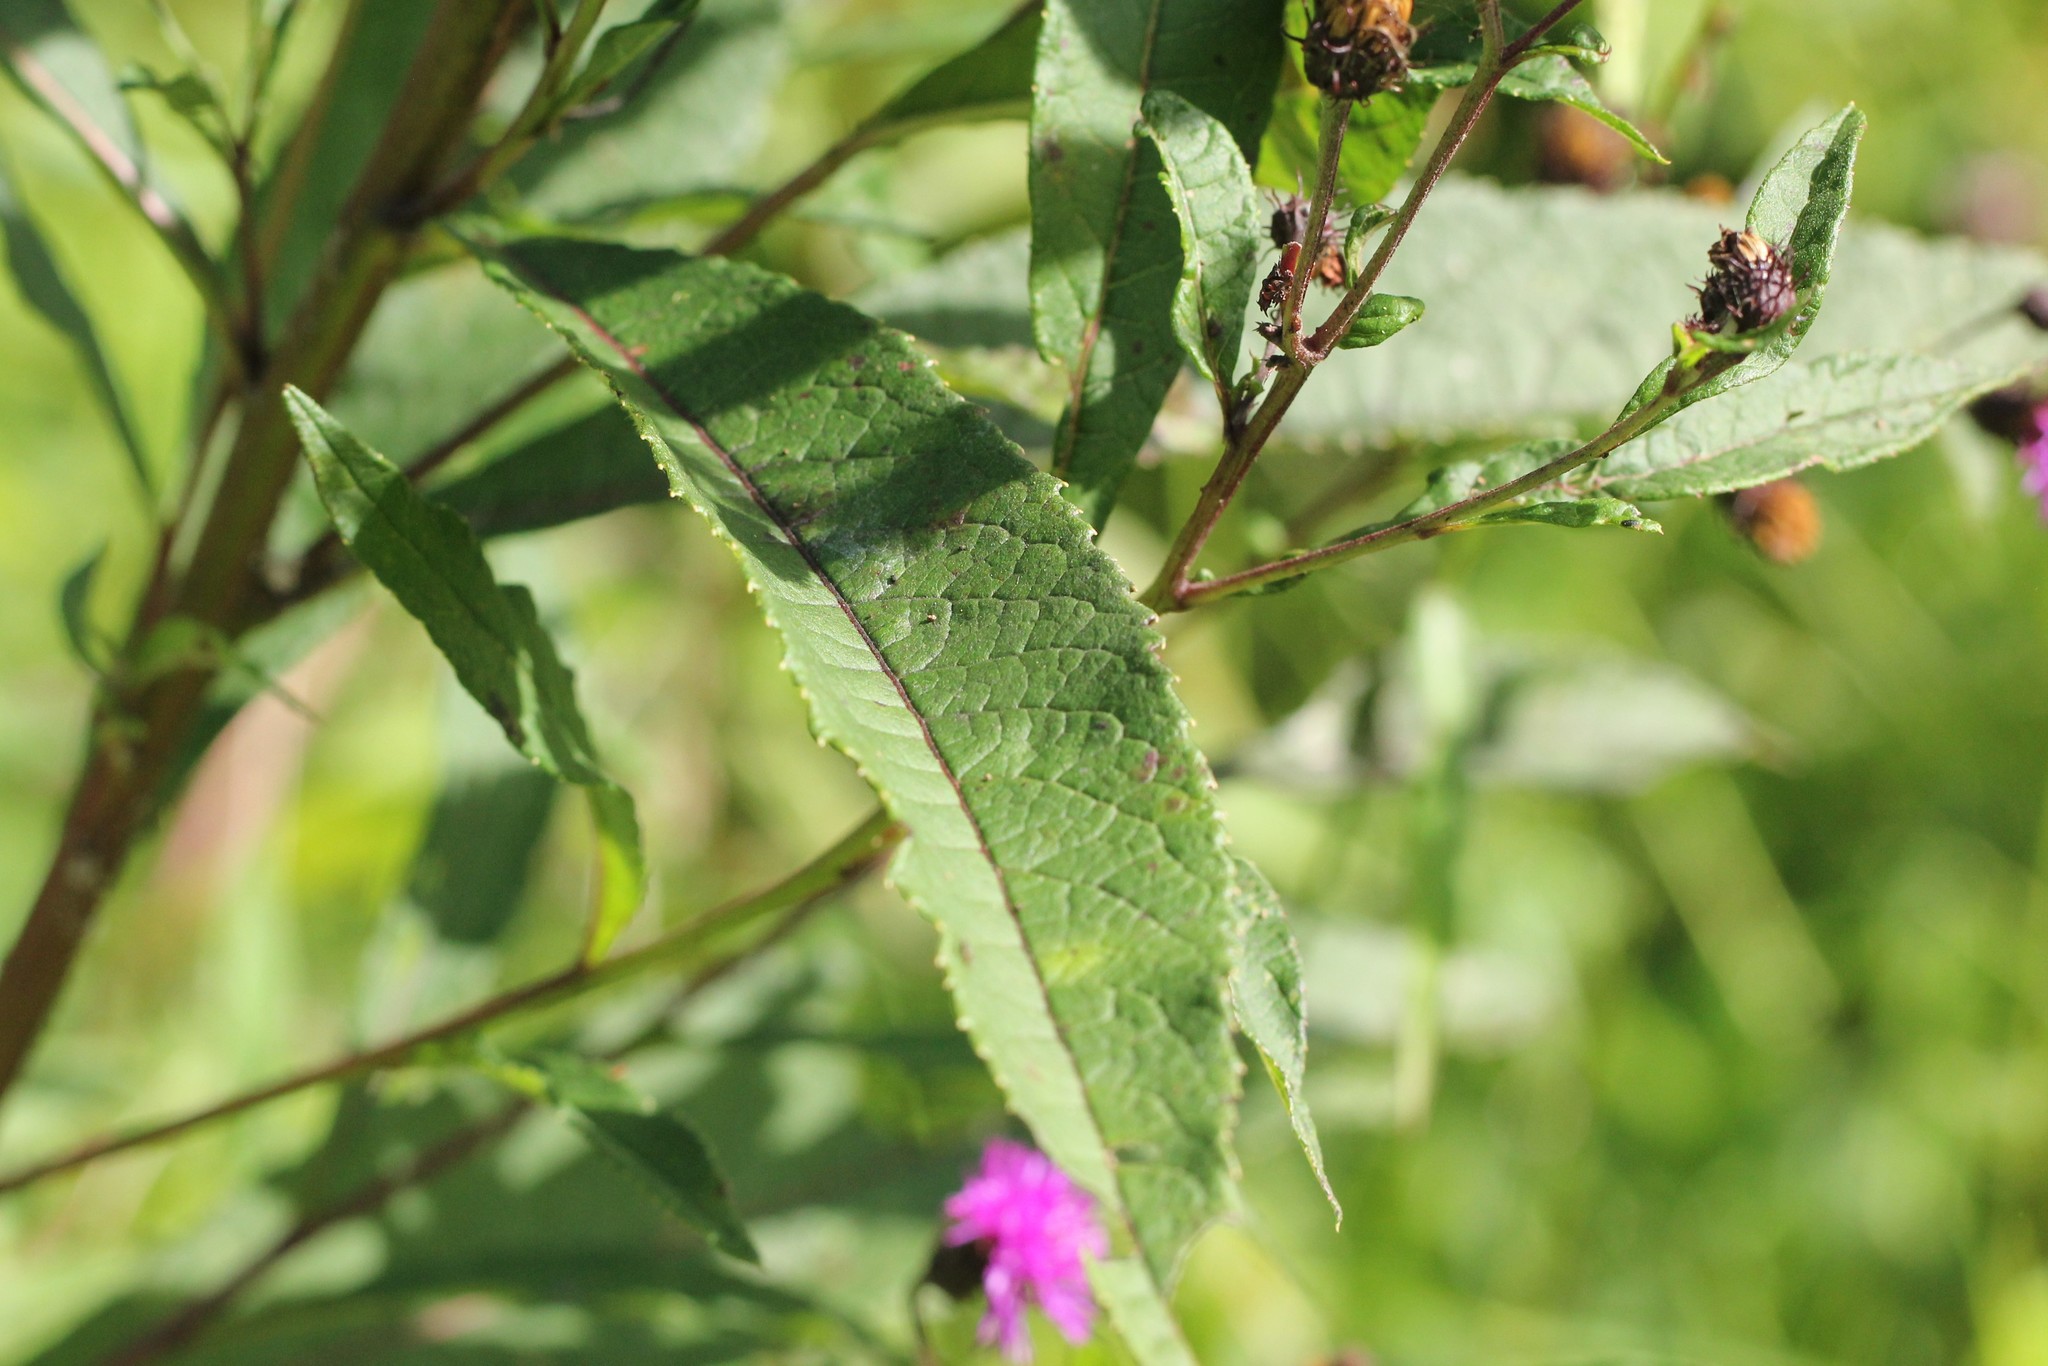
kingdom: Plantae
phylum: Tracheophyta
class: Magnoliopsida
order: Asterales
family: Asteraceae
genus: Vernonia
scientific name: Vernonia noveboracensis
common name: New york ironweed
